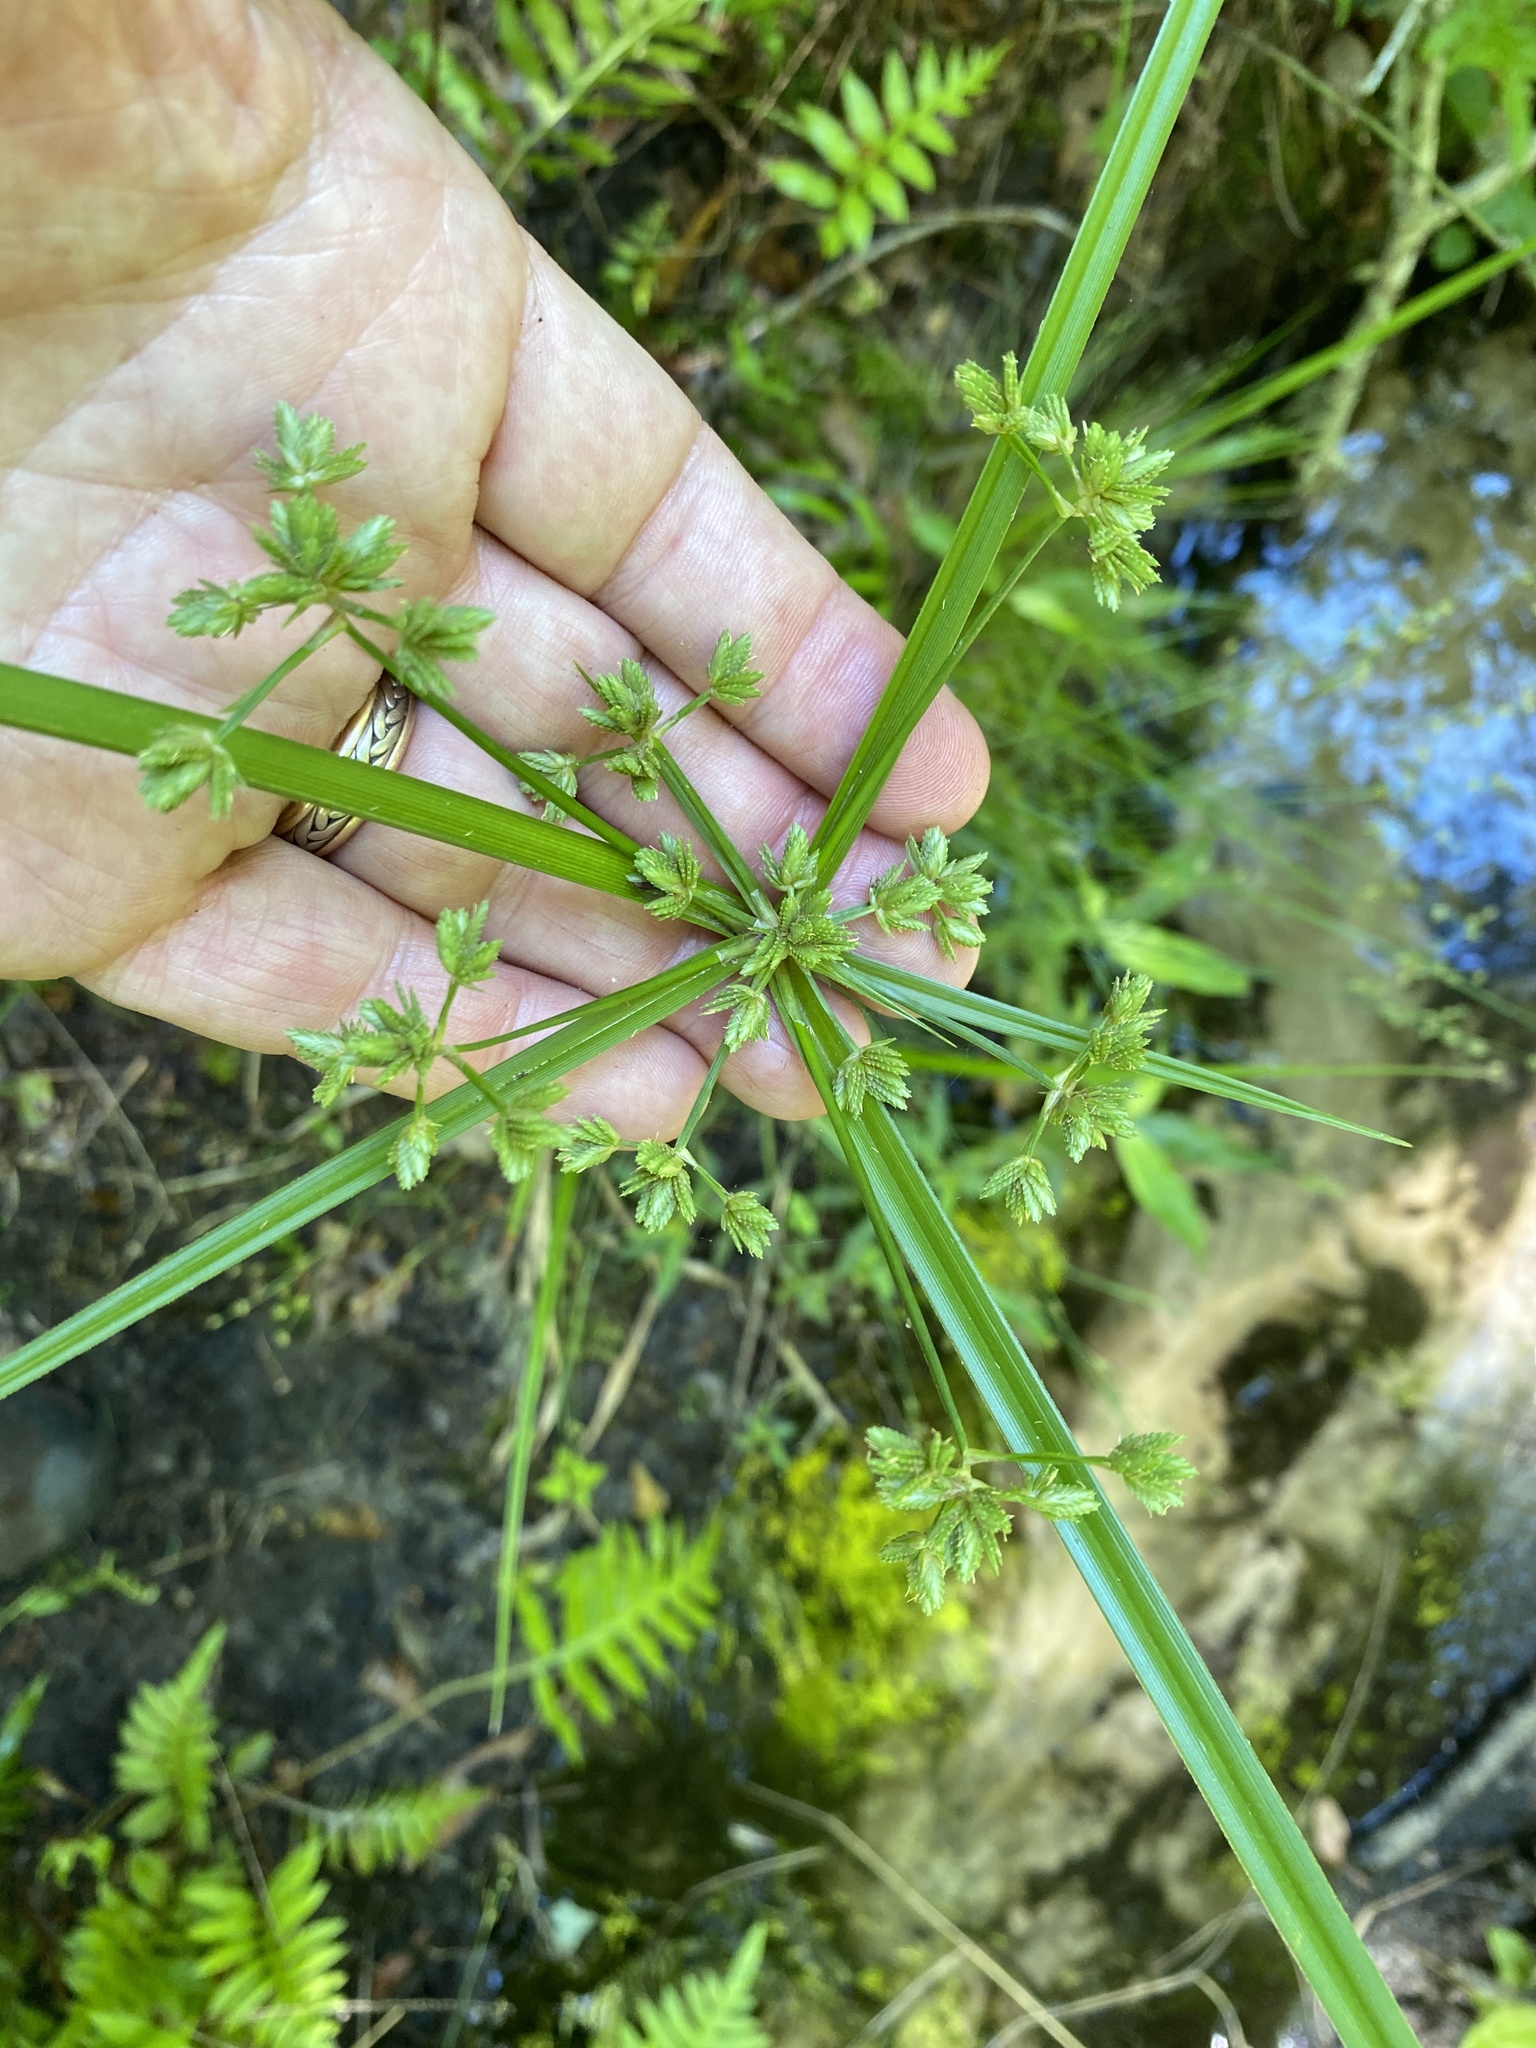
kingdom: Plantae
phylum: Tracheophyta
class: Liliopsida
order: Poales
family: Cyperaceae
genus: Cyperus
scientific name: Cyperus virens
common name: Green flatsedge
